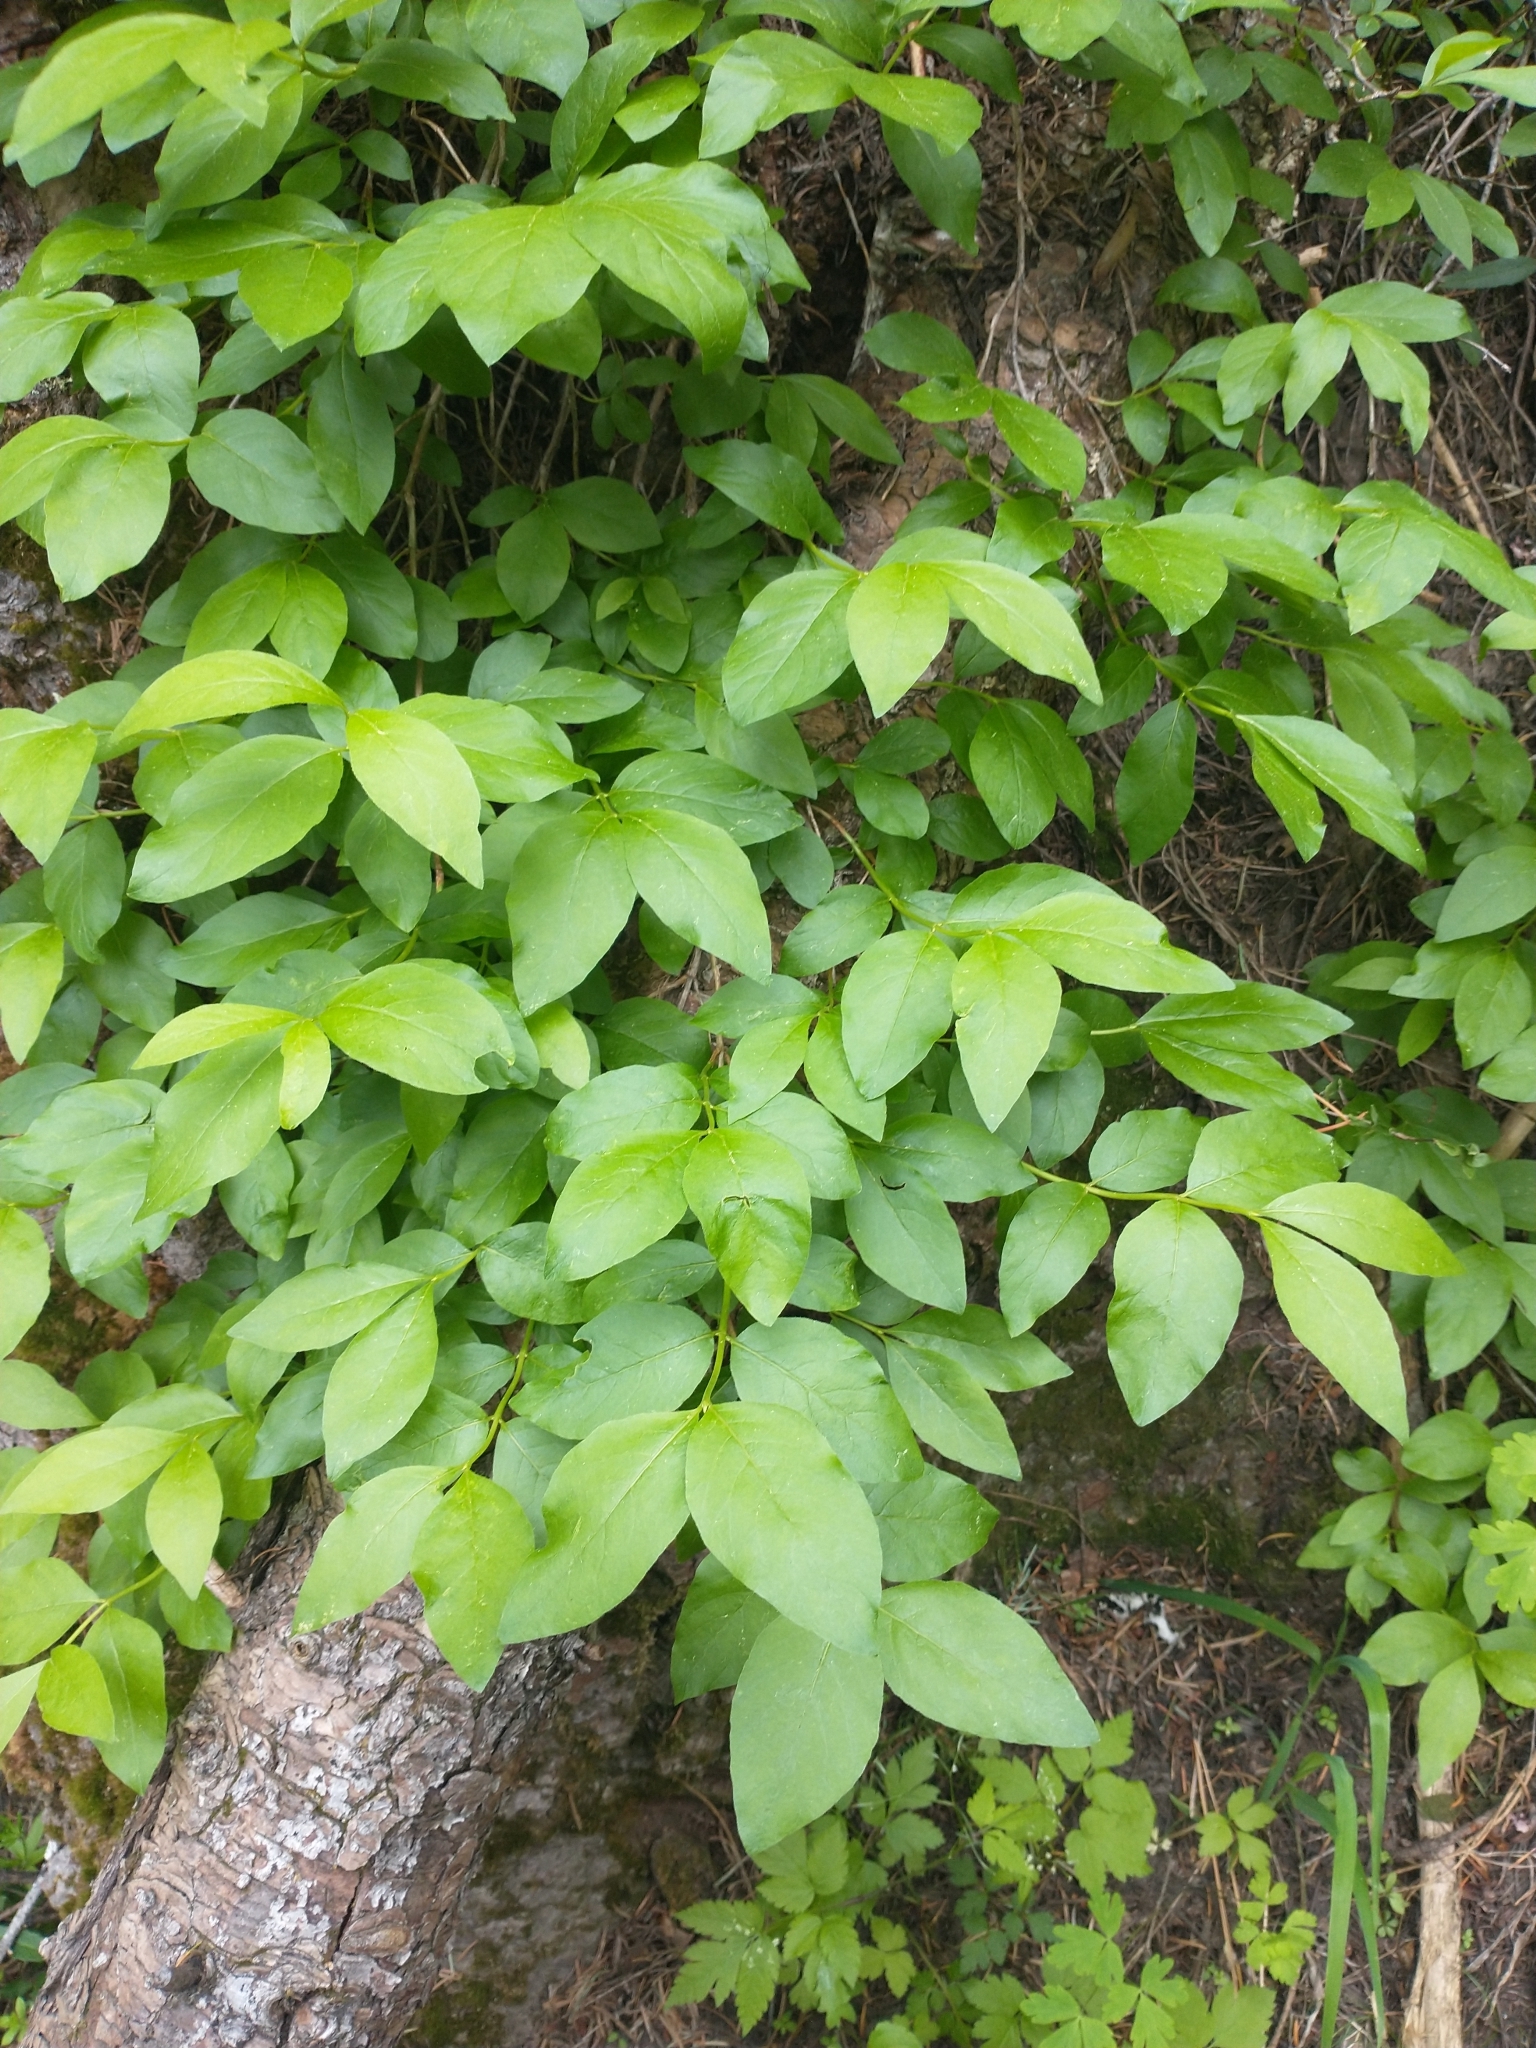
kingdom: Plantae
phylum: Tracheophyta
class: Magnoliopsida
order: Dipsacales
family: Caprifoliaceae
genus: Lonicera
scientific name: Lonicera conjugialis
